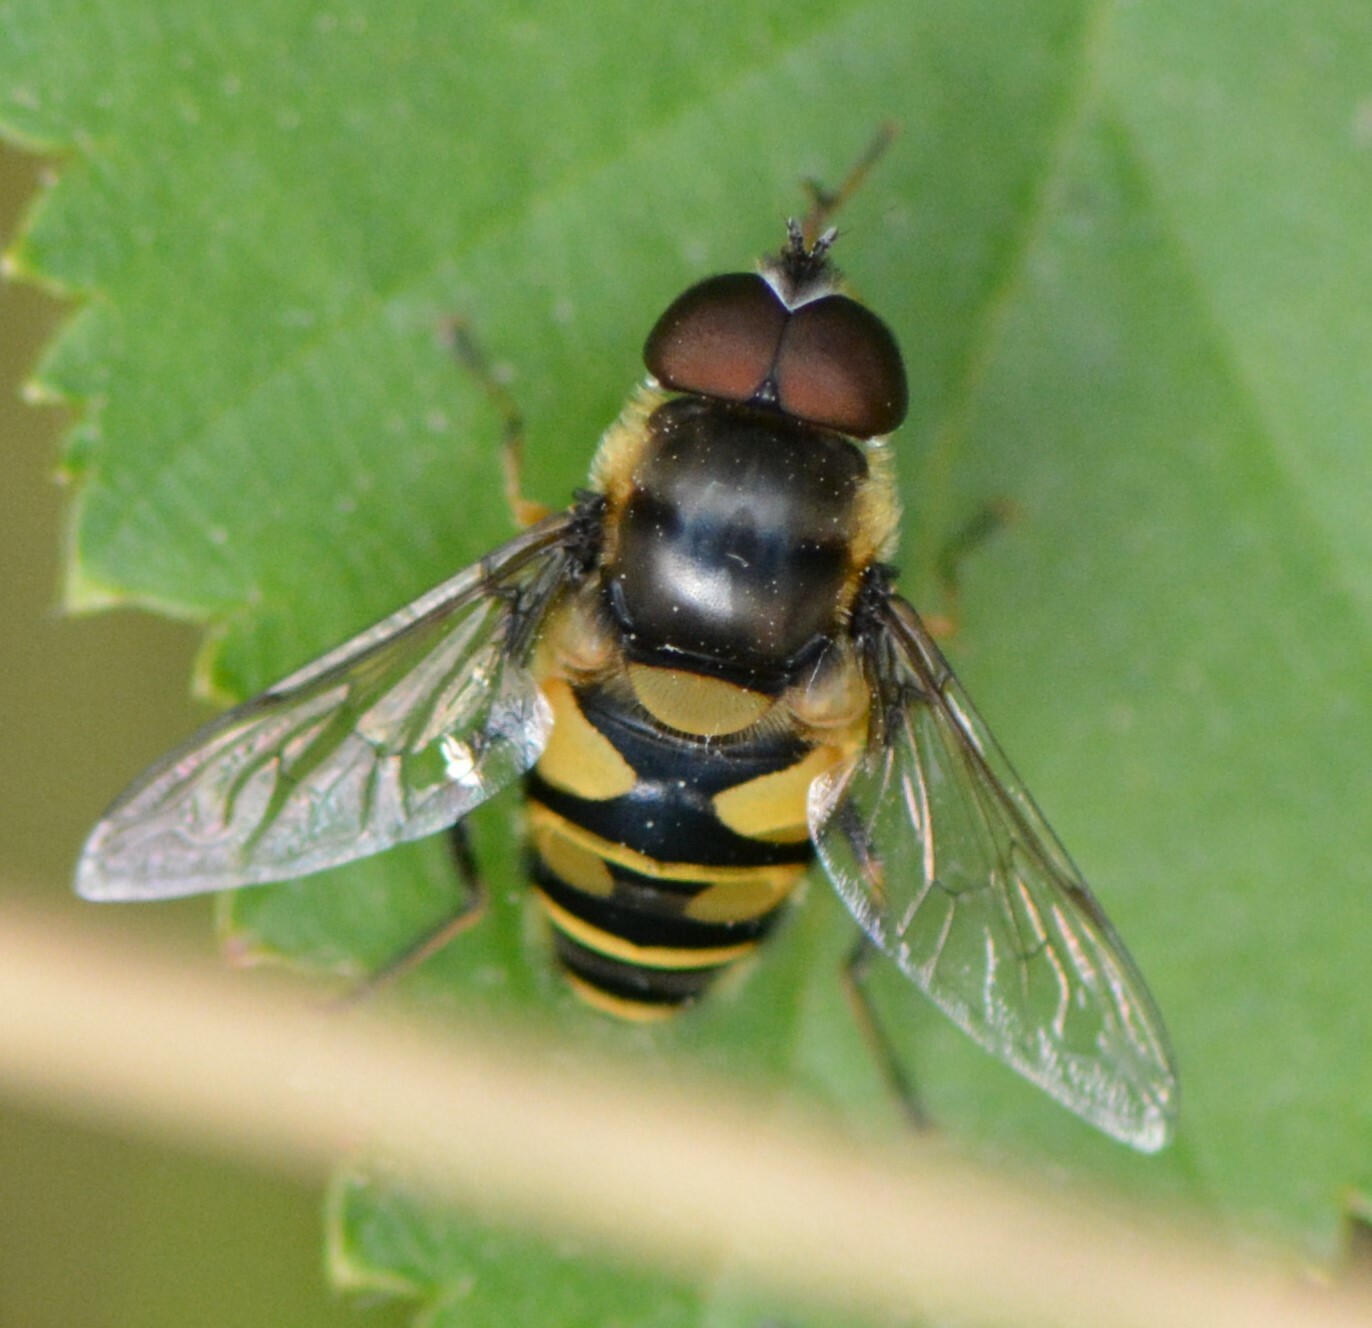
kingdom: Animalia
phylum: Arthropoda
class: Insecta
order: Diptera
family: Syrphidae
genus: Eristalis
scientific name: Eristalis transversa
